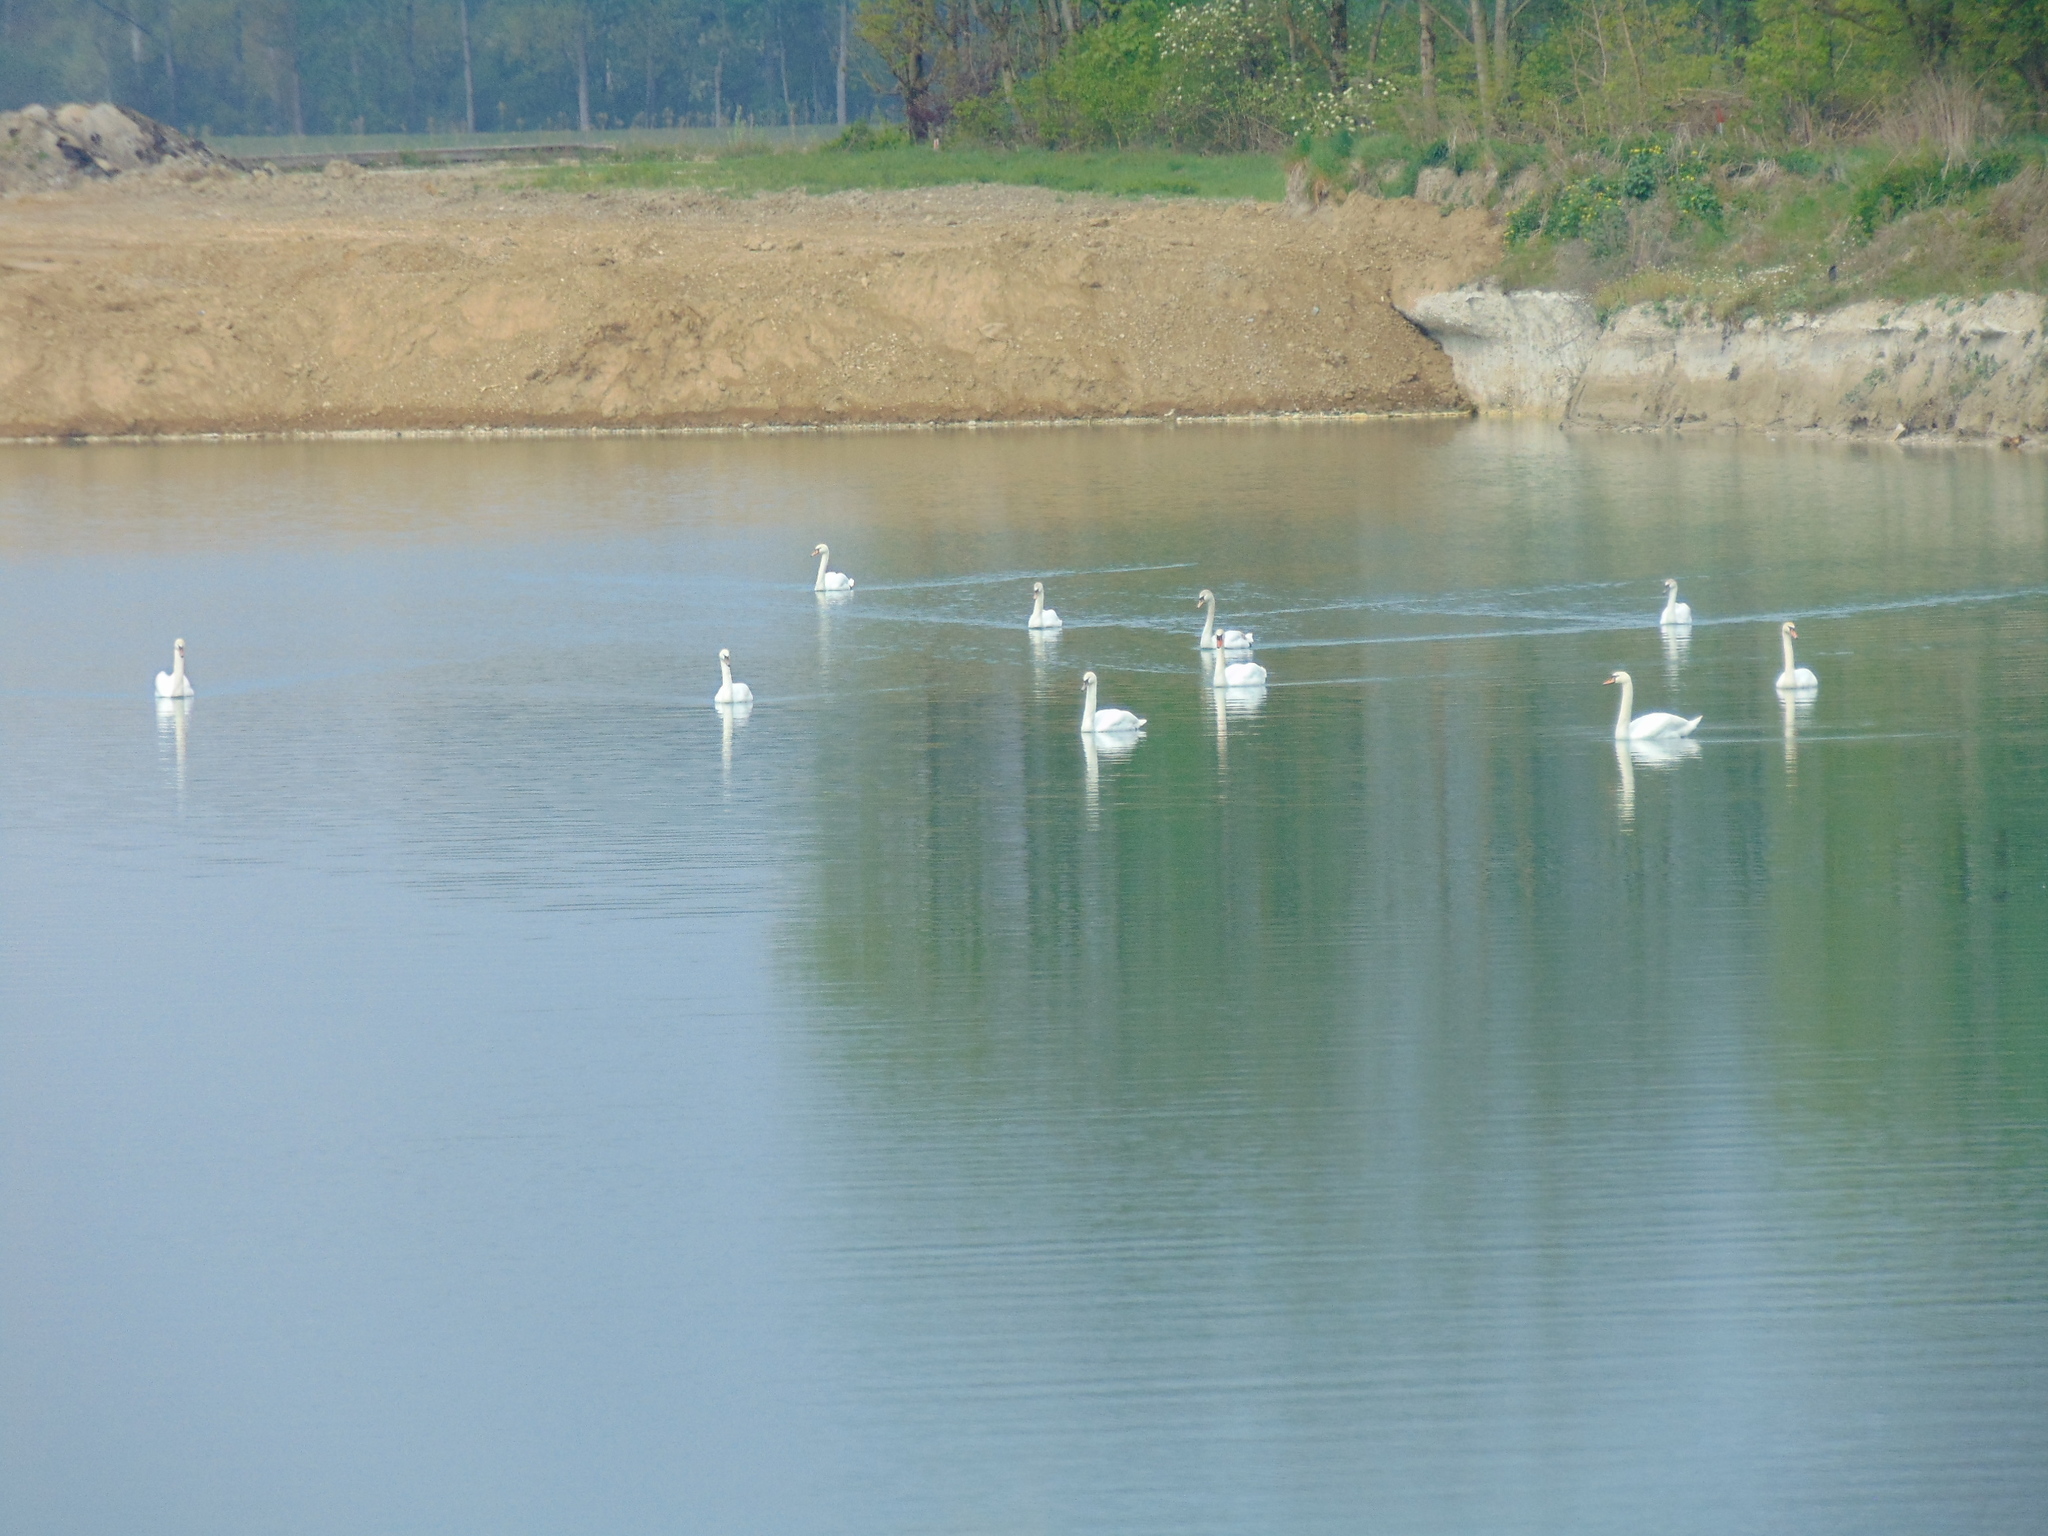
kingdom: Animalia
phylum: Chordata
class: Aves
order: Anseriformes
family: Anatidae
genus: Cygnus
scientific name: Cygnus olor
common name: Mute swan
